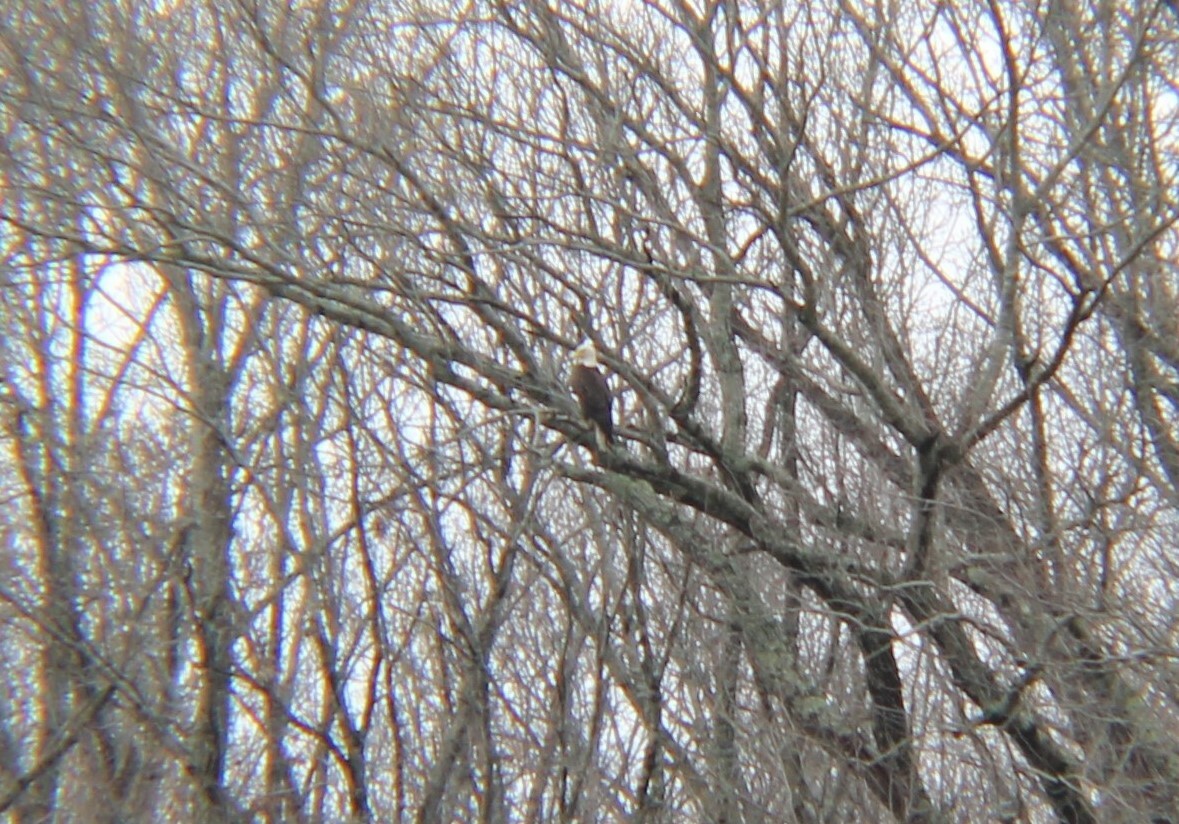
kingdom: Animalia
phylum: Chordata
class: Aves
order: Accipitriformes
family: Accipitridae
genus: Haliaeetus
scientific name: Haliaeetus leucocephalus
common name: Bald eagle
